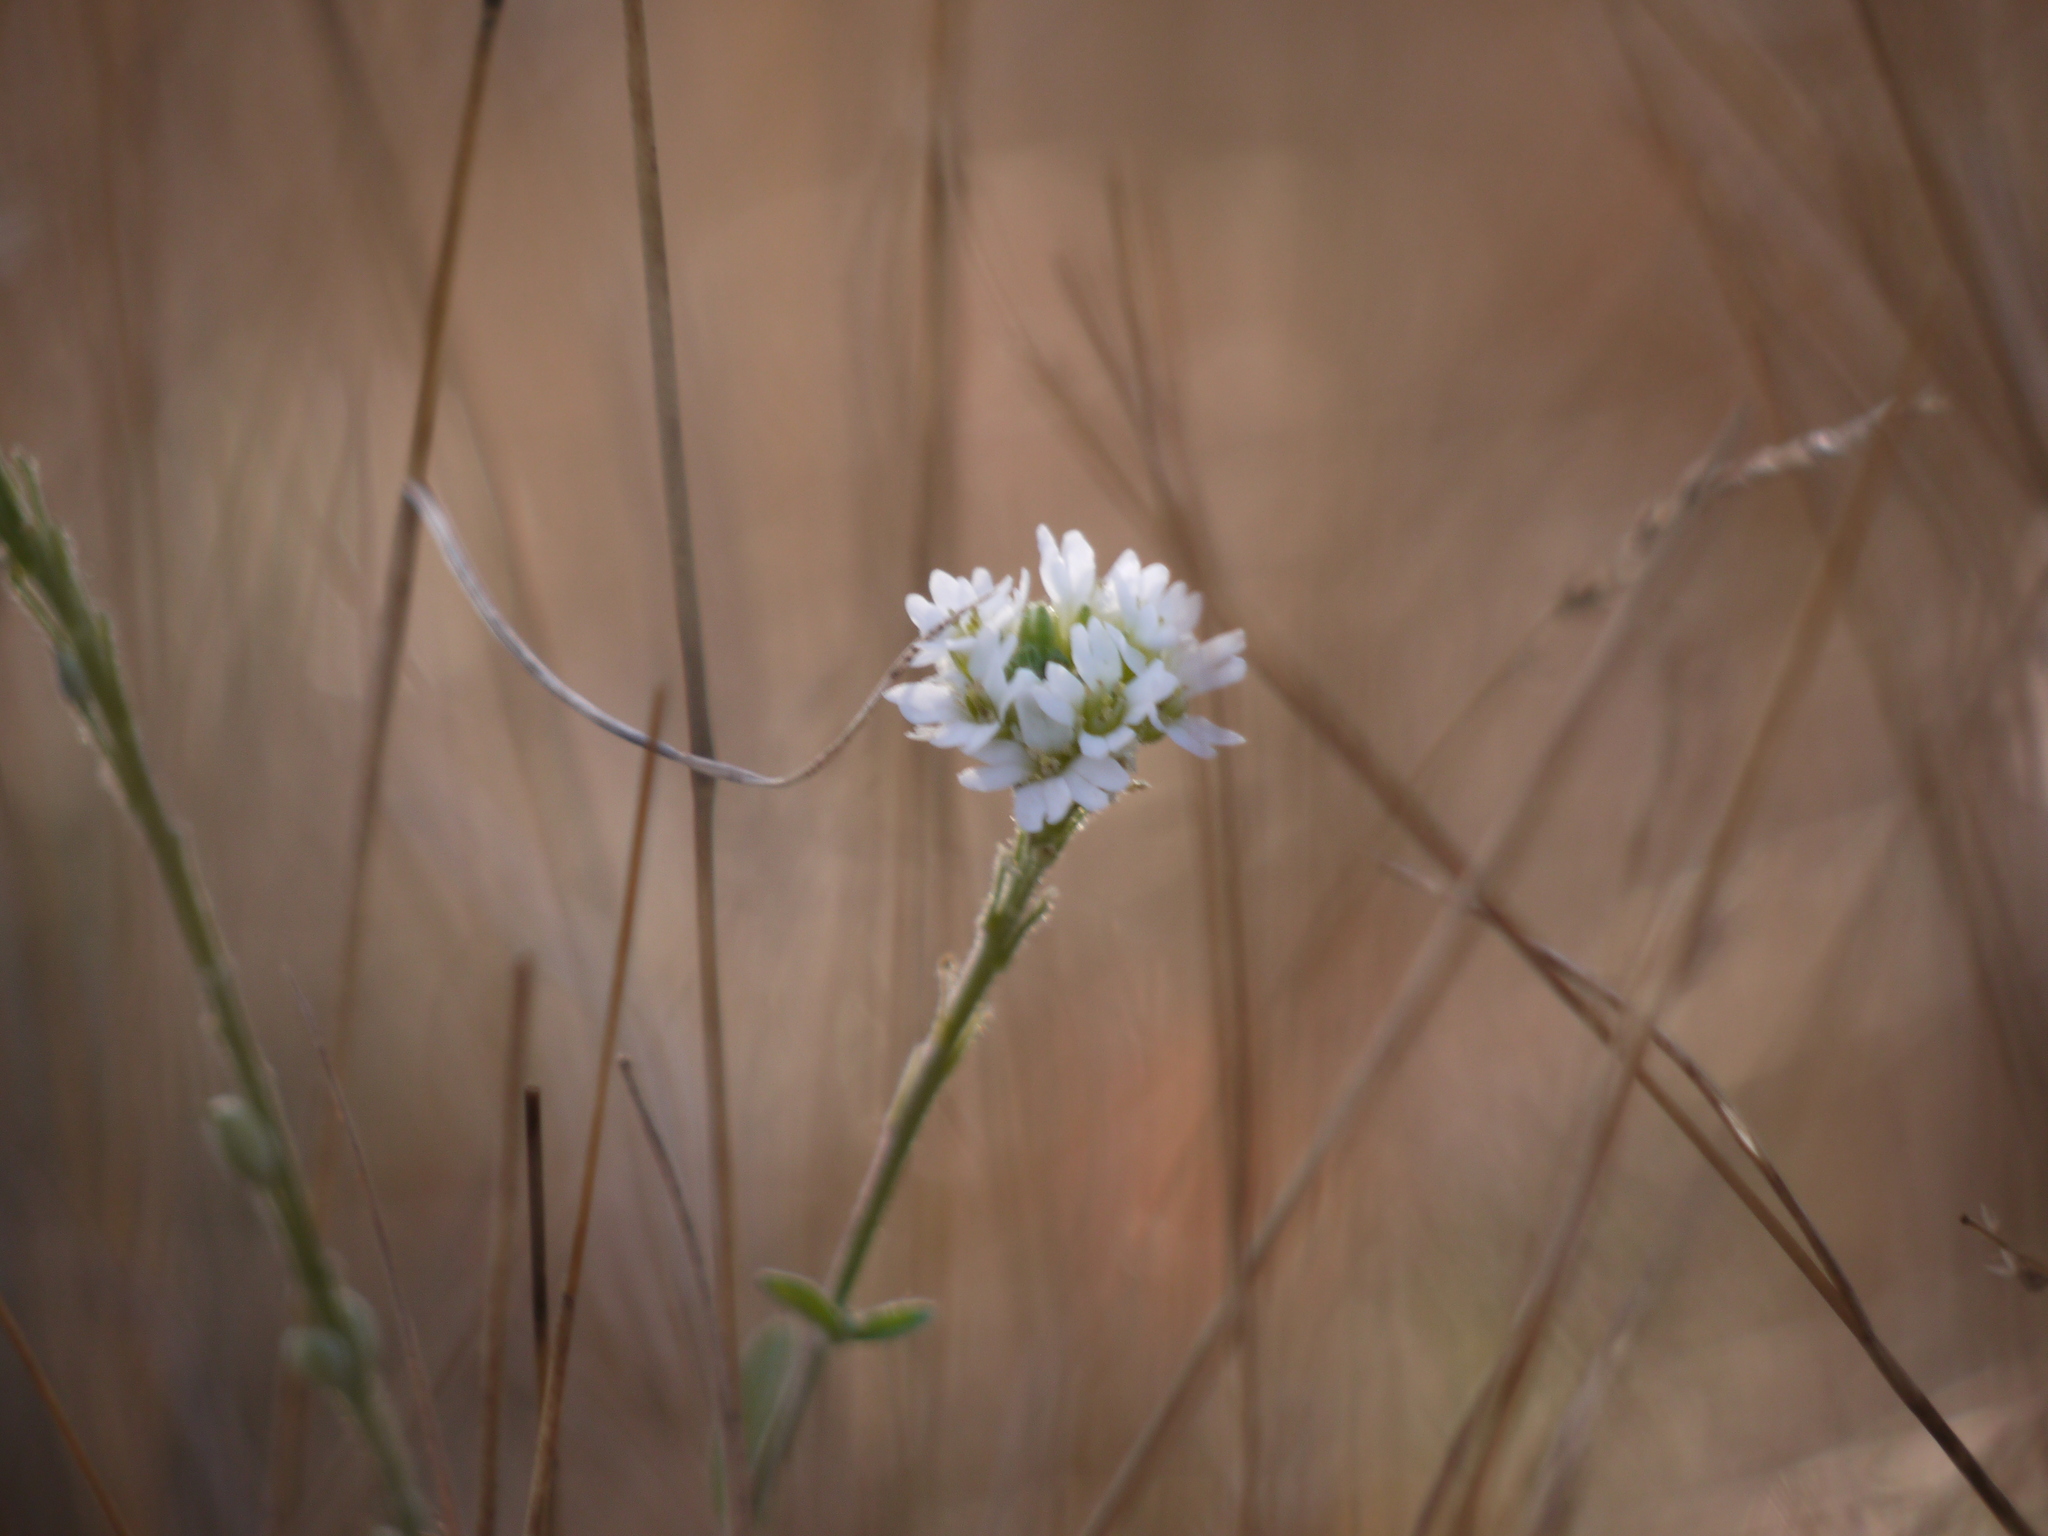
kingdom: Plantae
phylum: Tracheophyta
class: Magnoliopsida
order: Brassicales
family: Brassicaceae
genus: Berteroa
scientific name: Berteroa incana
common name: Hoary alison
